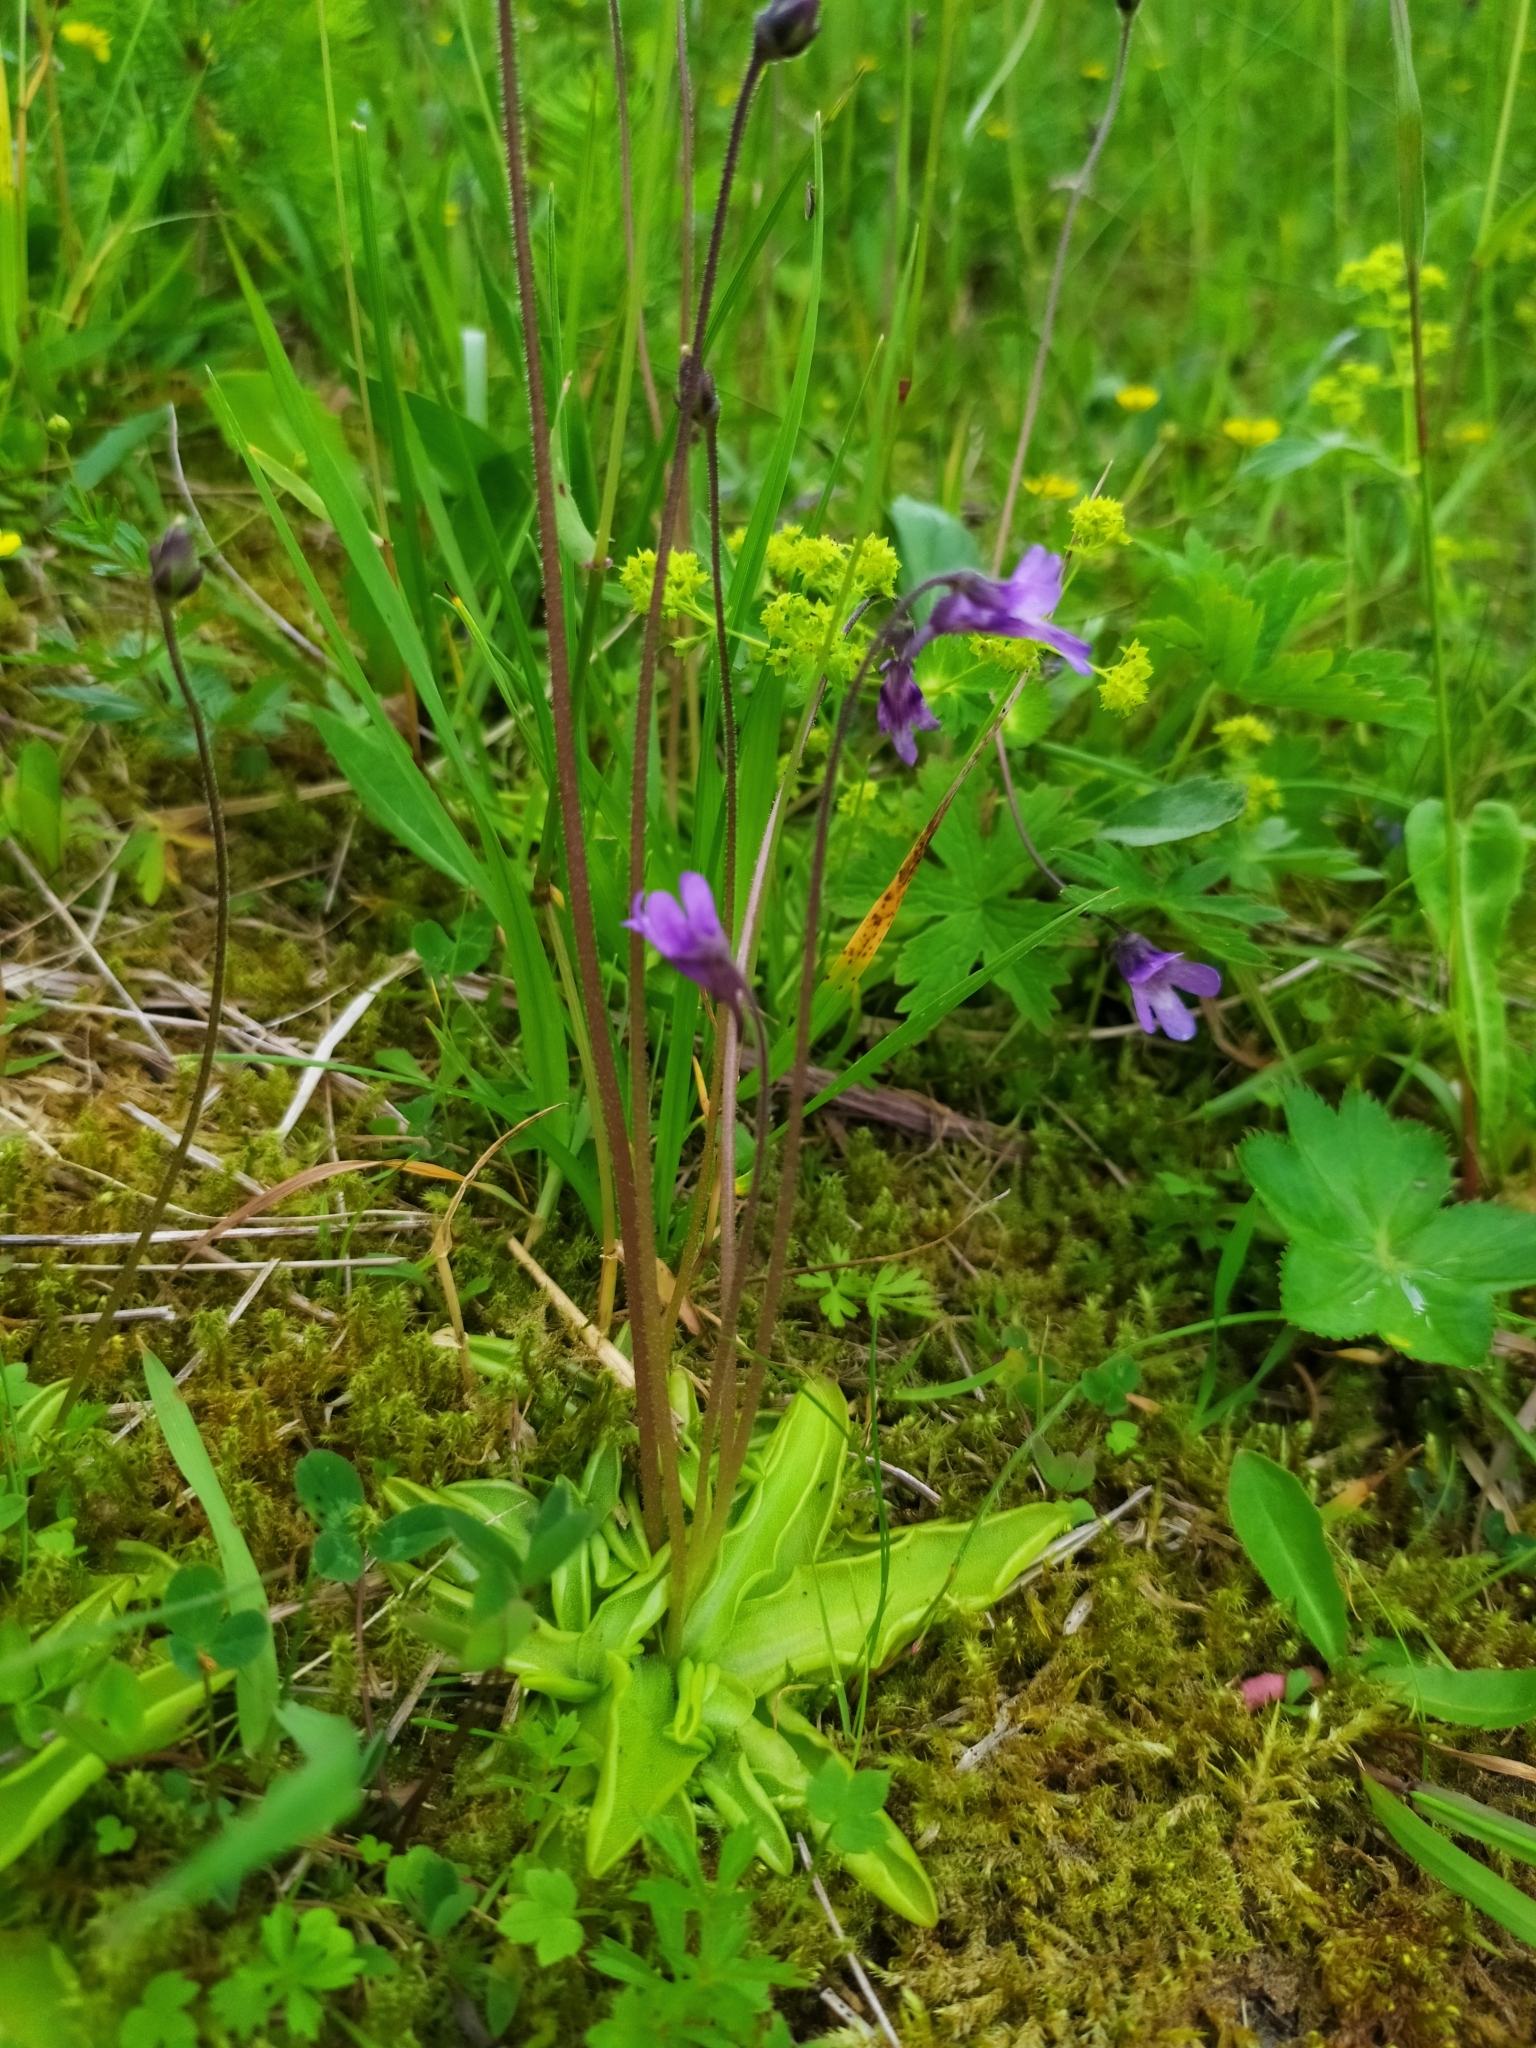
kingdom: Plantae
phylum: Tracheophyta
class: Magnoliopsida
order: Lamiales
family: Lentibulariaceae
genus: Pinguicula
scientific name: Pinguicula vulgaris
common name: Common butterwort
